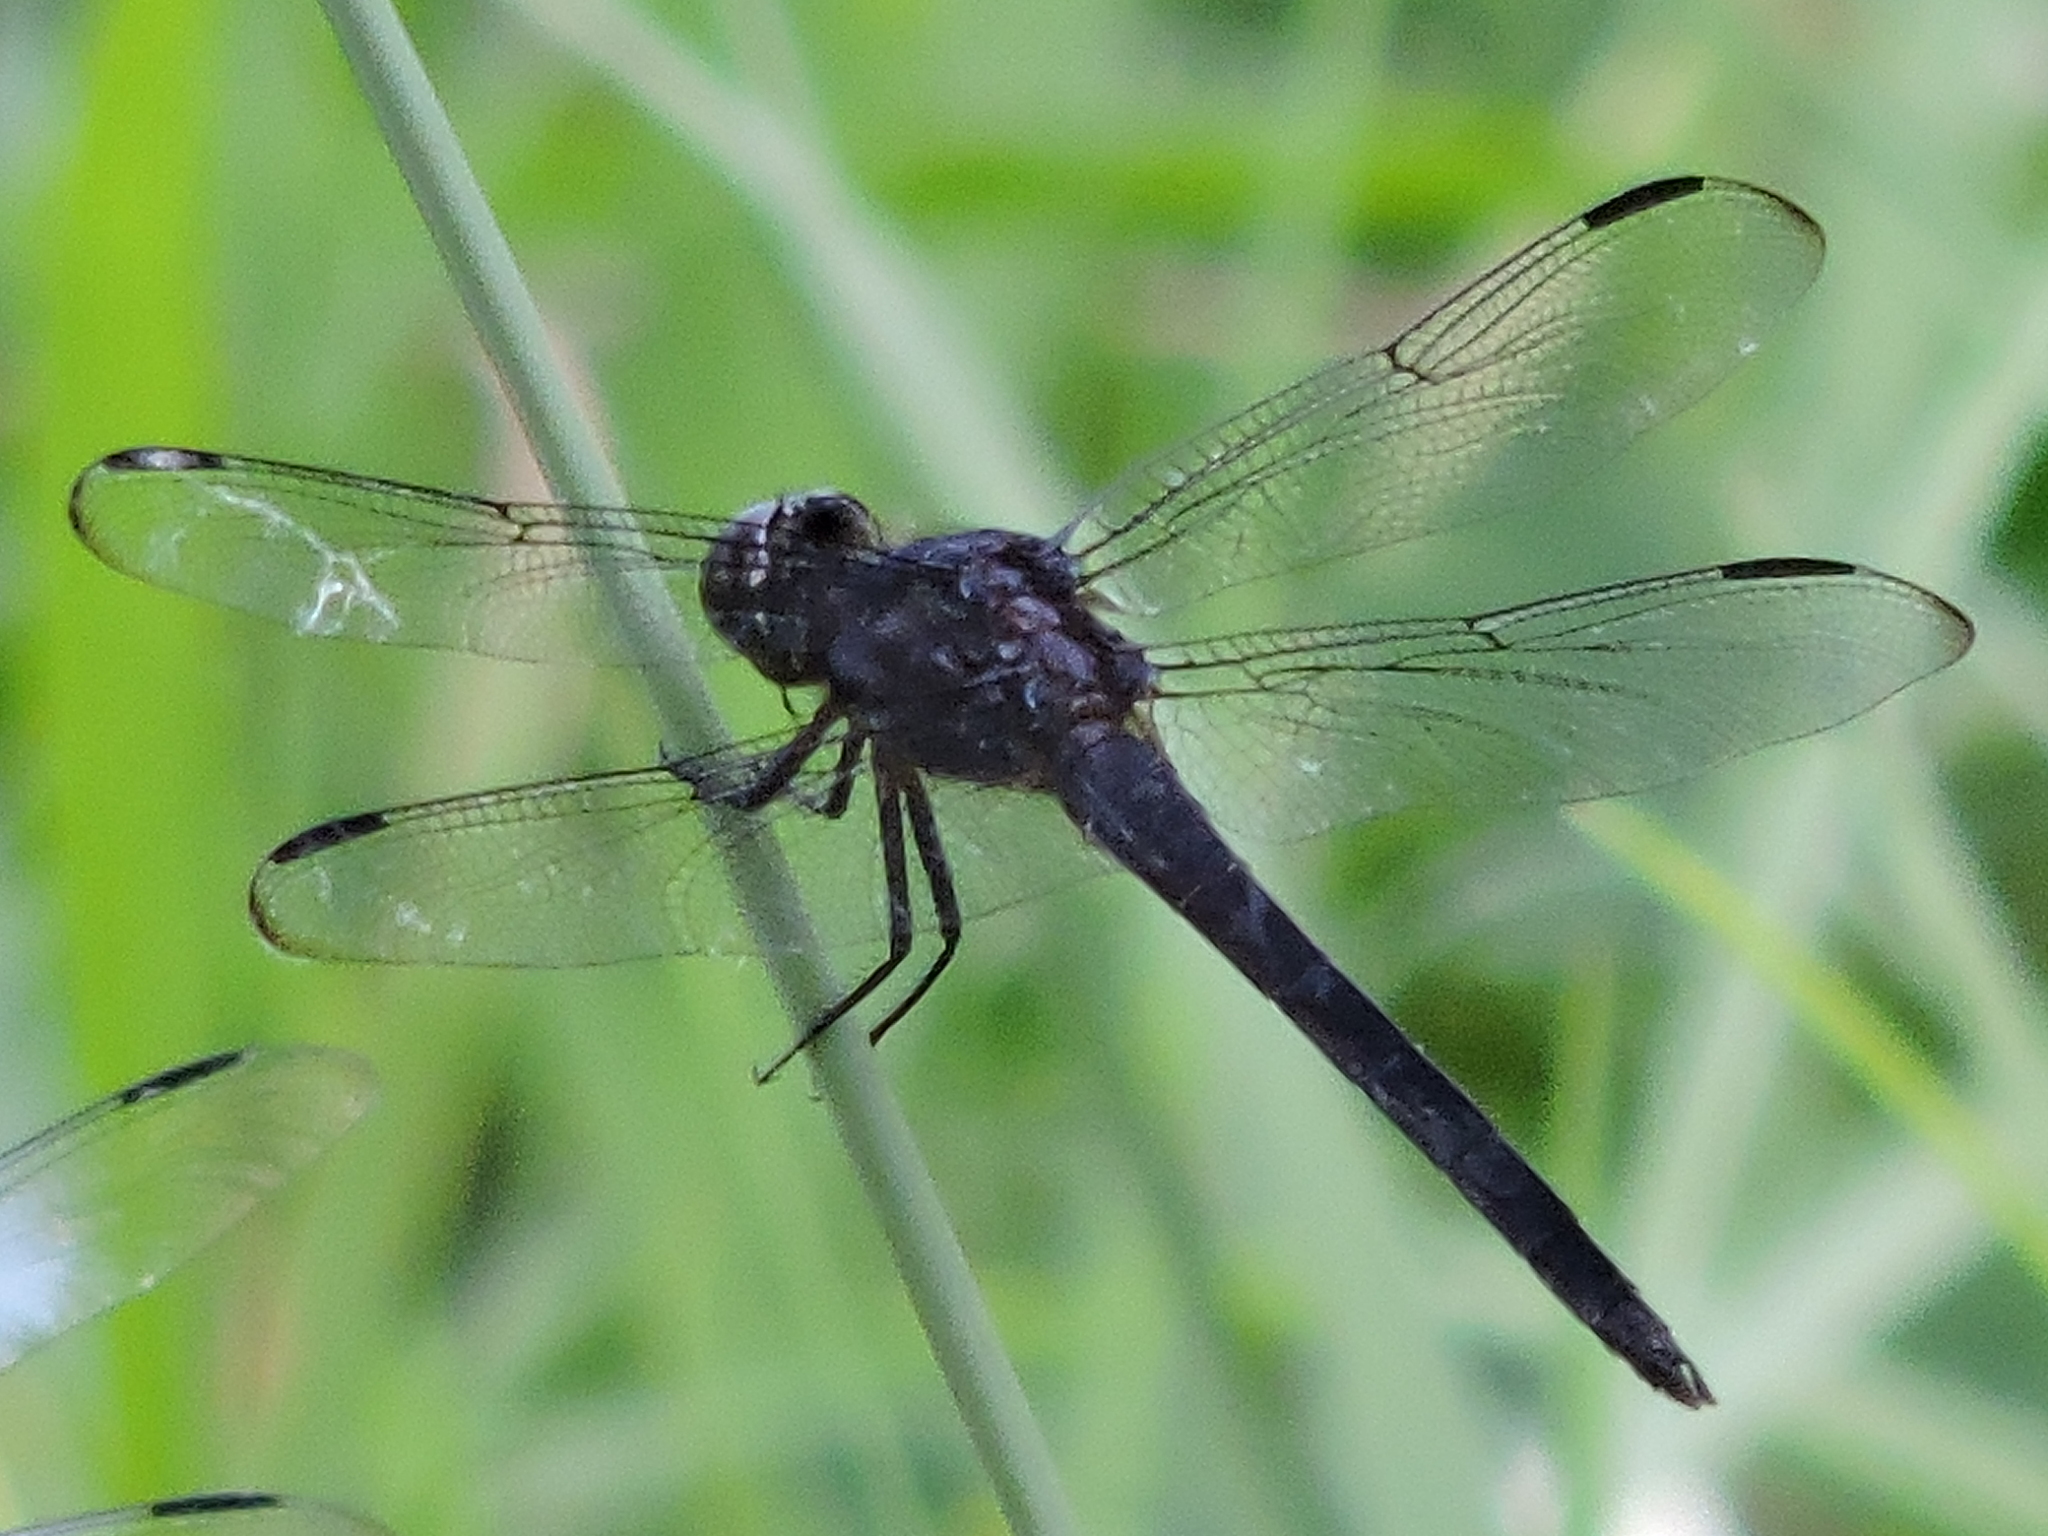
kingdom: Animalia
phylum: Arthropoda
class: Insecta
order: Odonata
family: Libellulidae
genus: Libellula
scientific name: Libellula incesta
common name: Slaty skimmer
